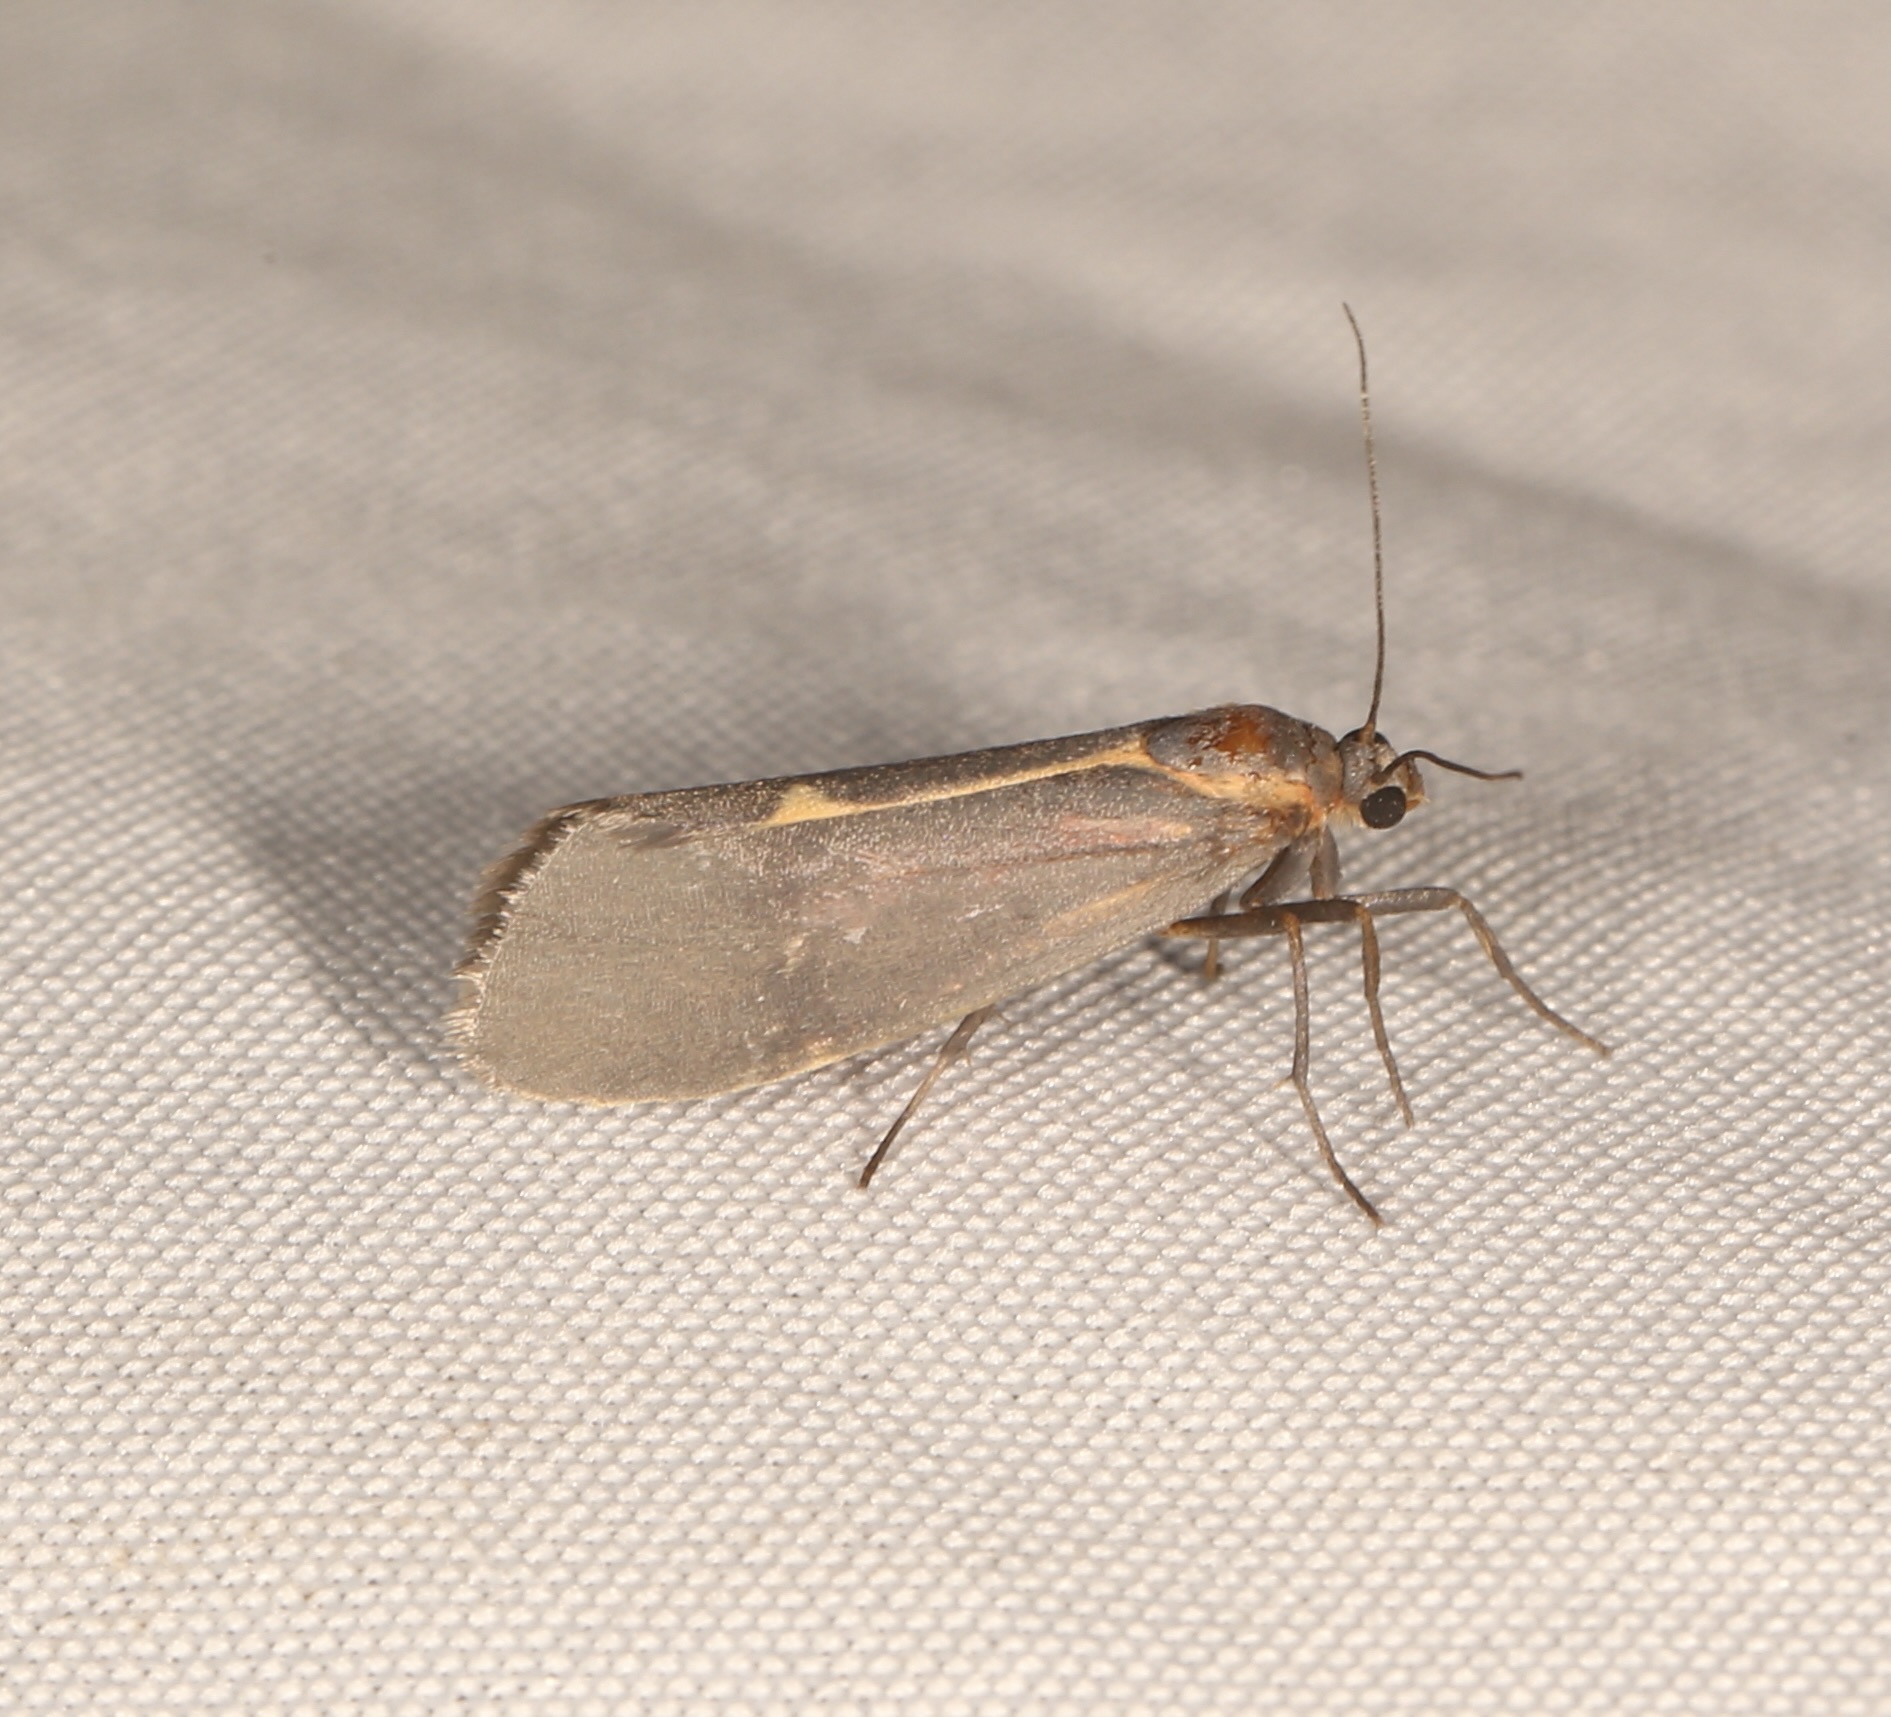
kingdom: Animalia
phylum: Arthropoda
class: Insecta
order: Lepidoptera
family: Erebidae
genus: Cisthene
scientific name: Cisthene barnesii
